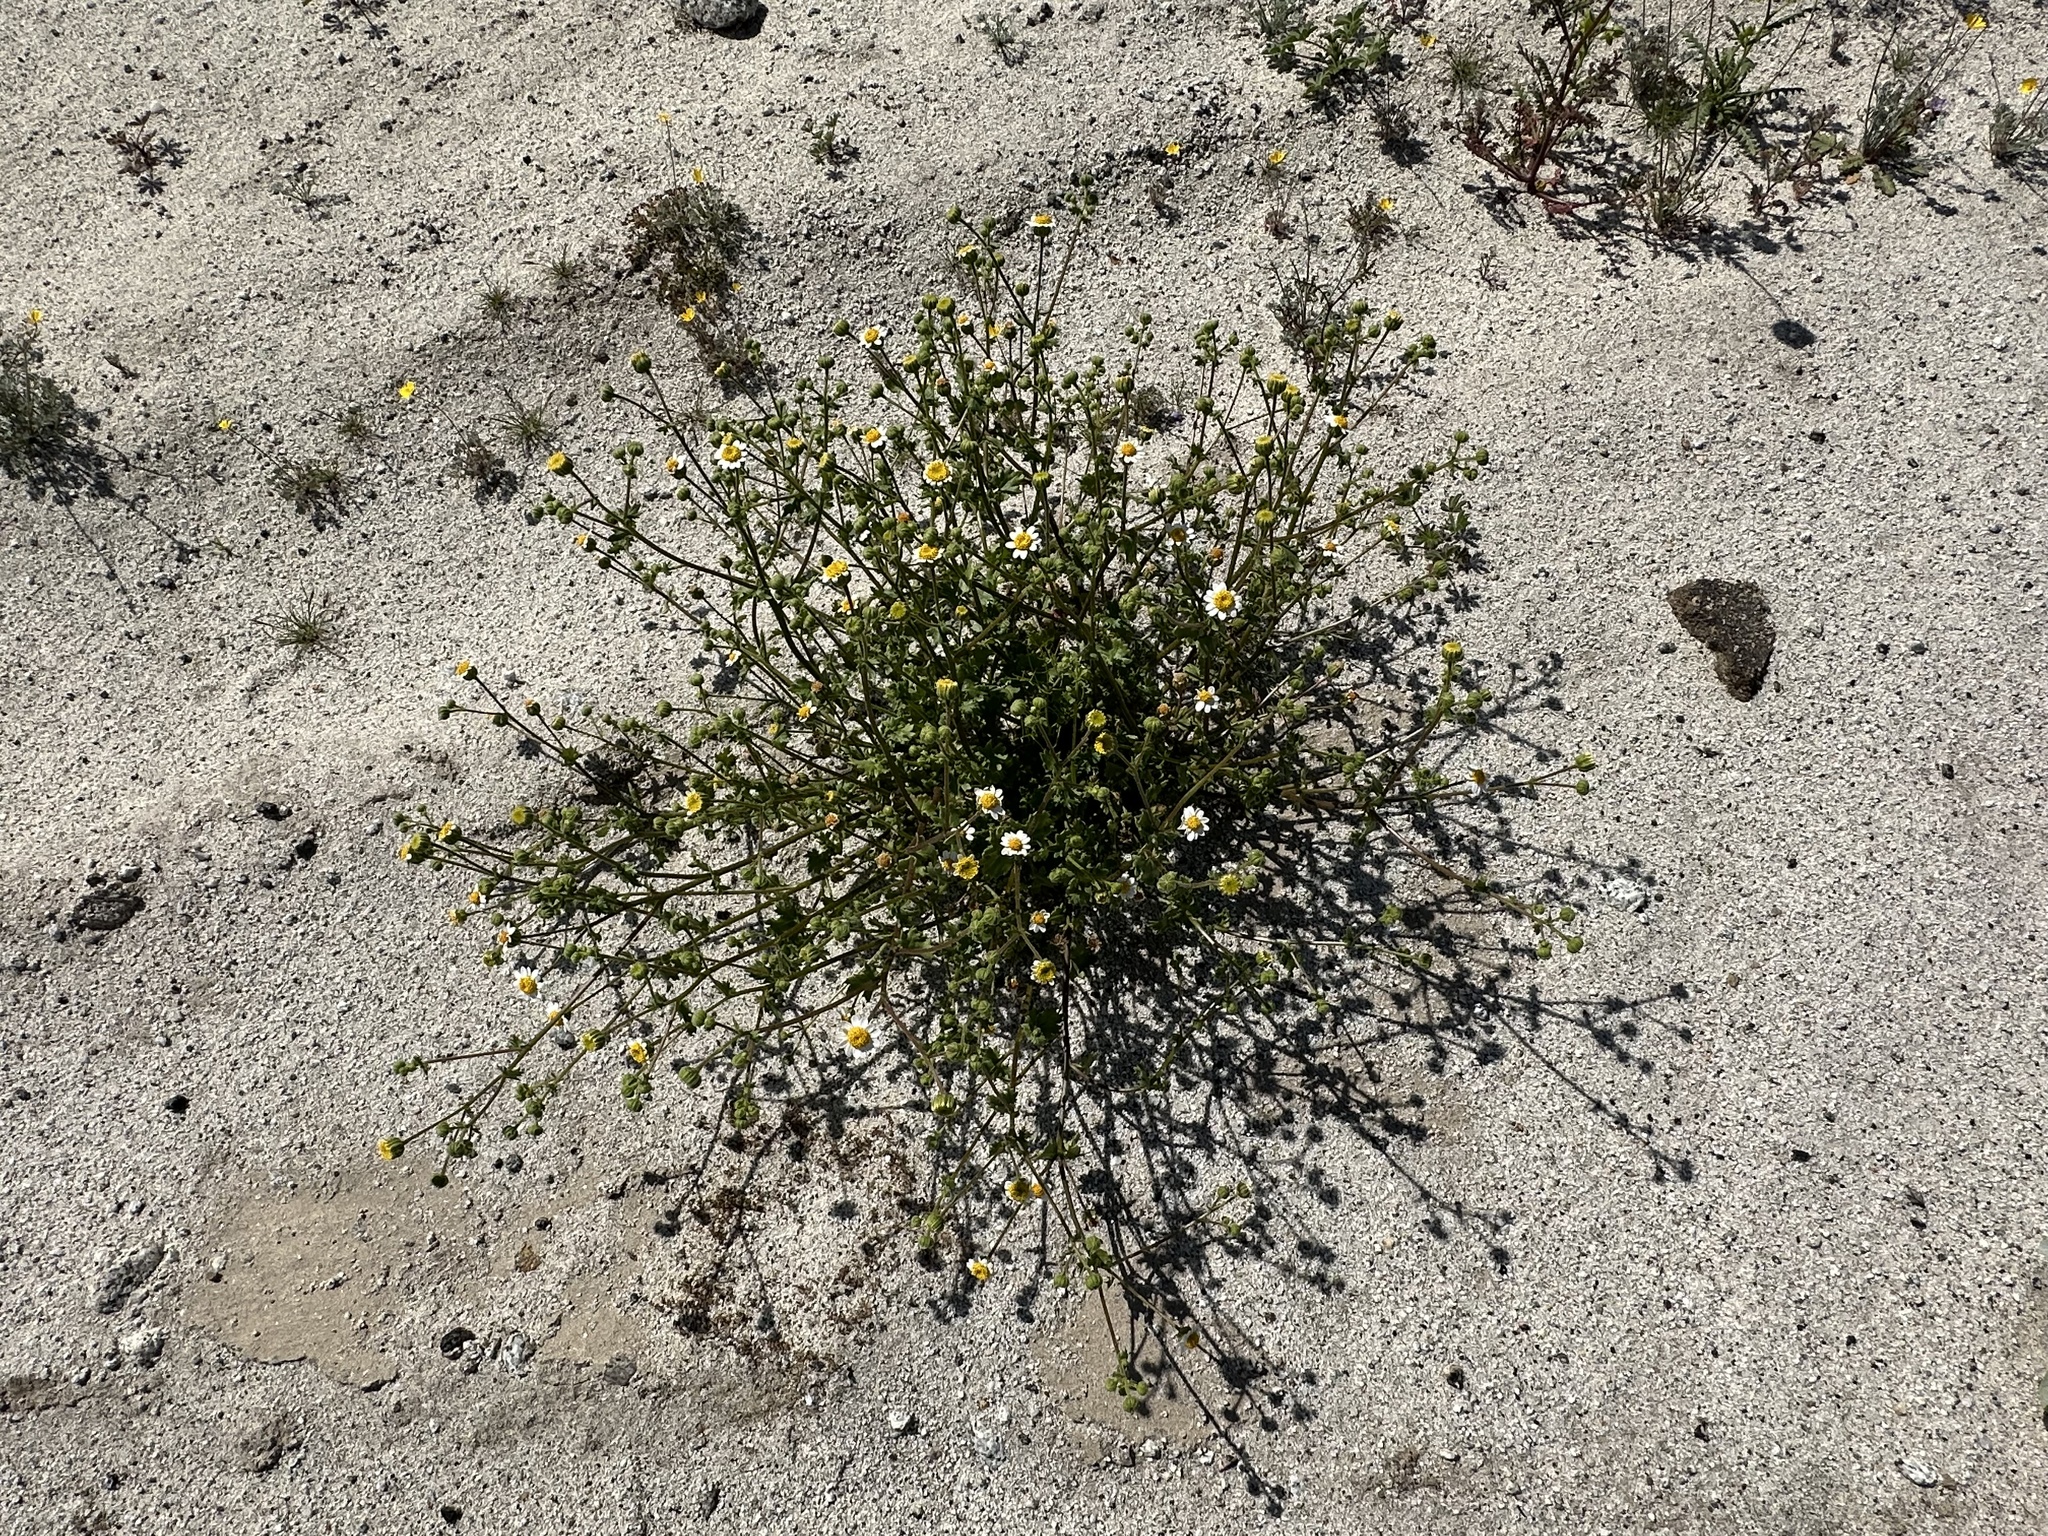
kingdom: Plantae
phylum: Tracheophyta
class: Magnoliopsida
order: Asterales
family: Asteraceae
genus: Laphamia
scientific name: Laphamia emoryi
